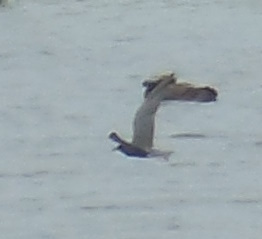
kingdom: Animalia
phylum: Chordata
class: Aves
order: Charadriiformes
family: Laridae
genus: Chlidonias
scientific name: Chlidonias niger
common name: Black tern
